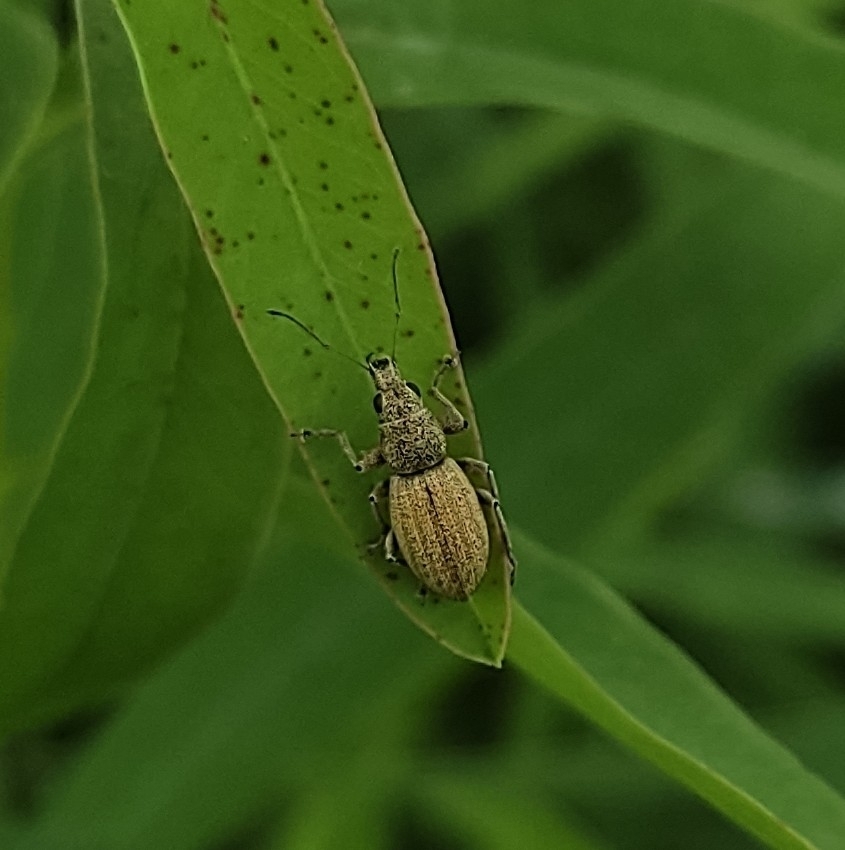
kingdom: Animalia
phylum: Arthropoda
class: Insecta
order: Coleoptera
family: Curculionidae
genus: Eusomus
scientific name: Eusomus ovulum
